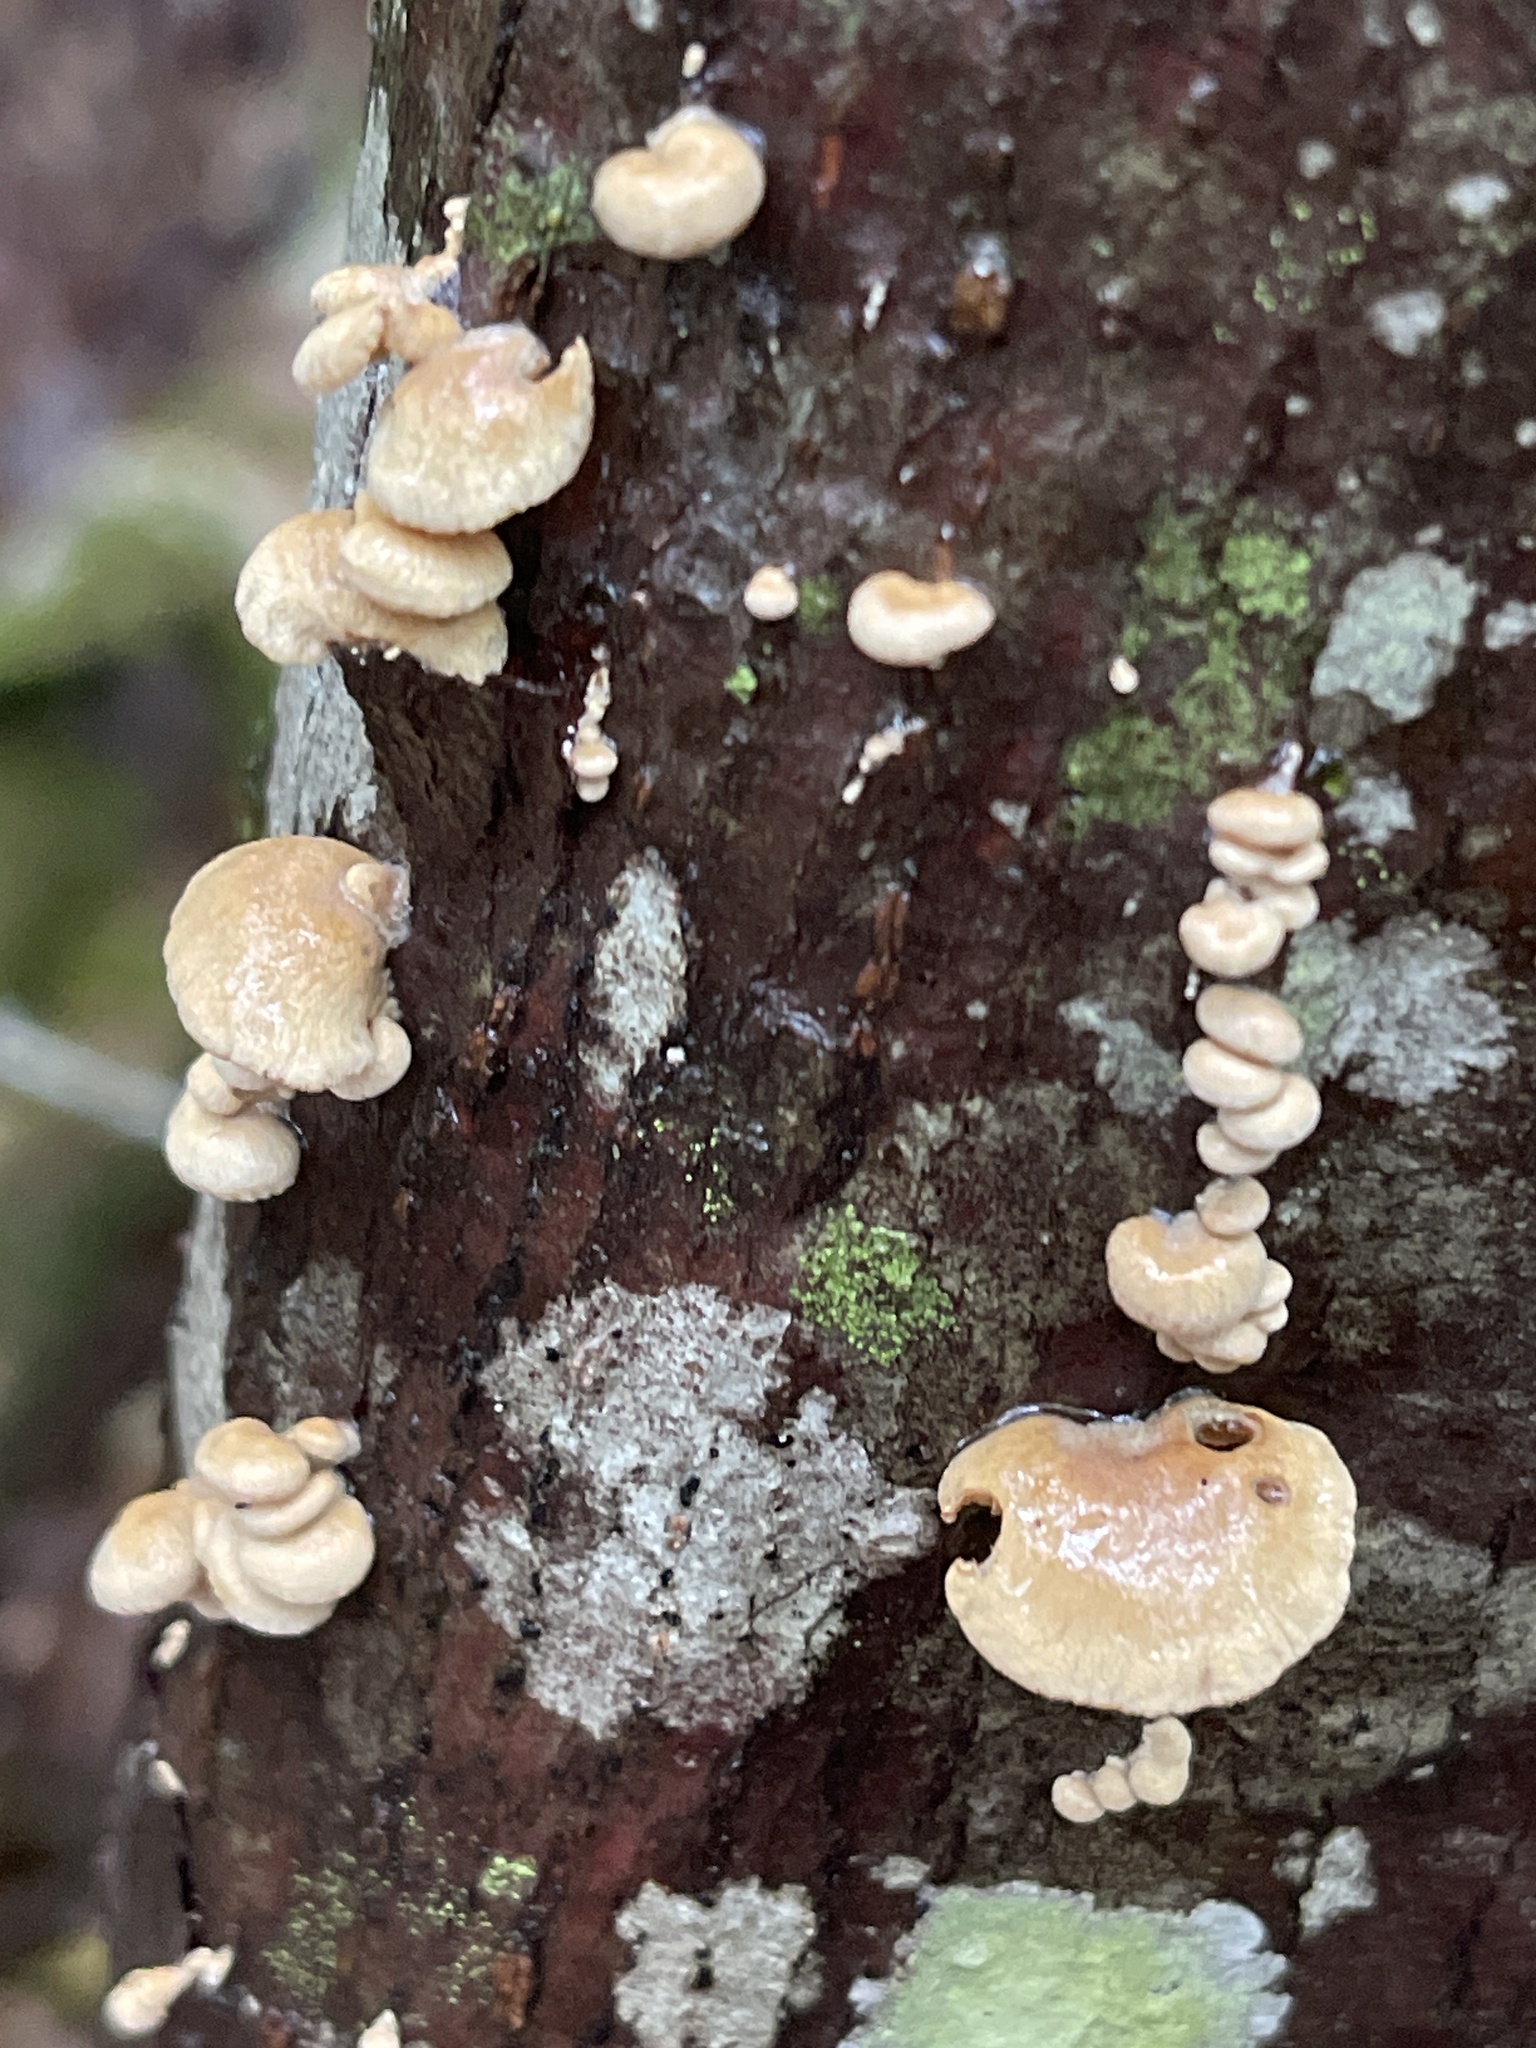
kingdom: Fungi
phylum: Basidiomycota
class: Agaricomycetes
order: Agaricales
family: Mycenaceae
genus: Panellus
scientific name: Panellus stipticus
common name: Bitter oysterling
